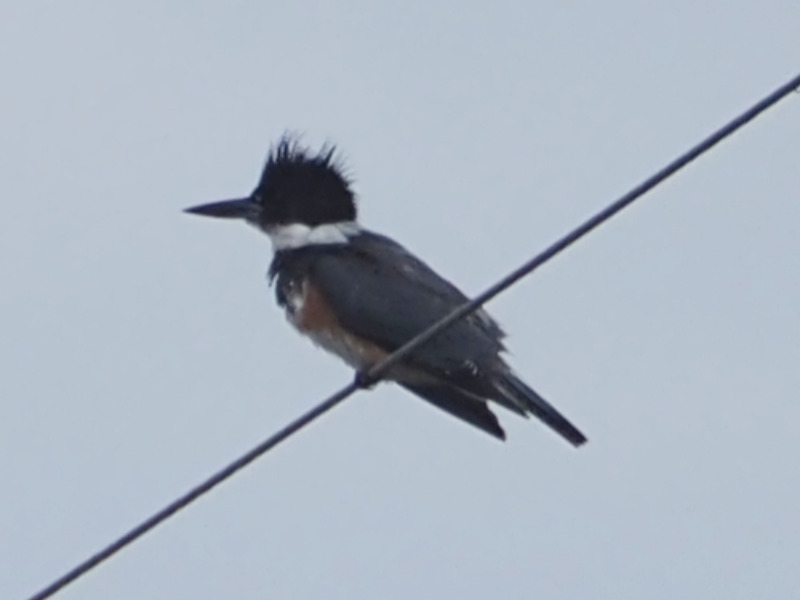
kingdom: Animalia
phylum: Chordata
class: Aves
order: Coraciiformes
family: Alcedinidae
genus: Megaceryle
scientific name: Megaceryle alcyon
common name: Belted kingfisher
